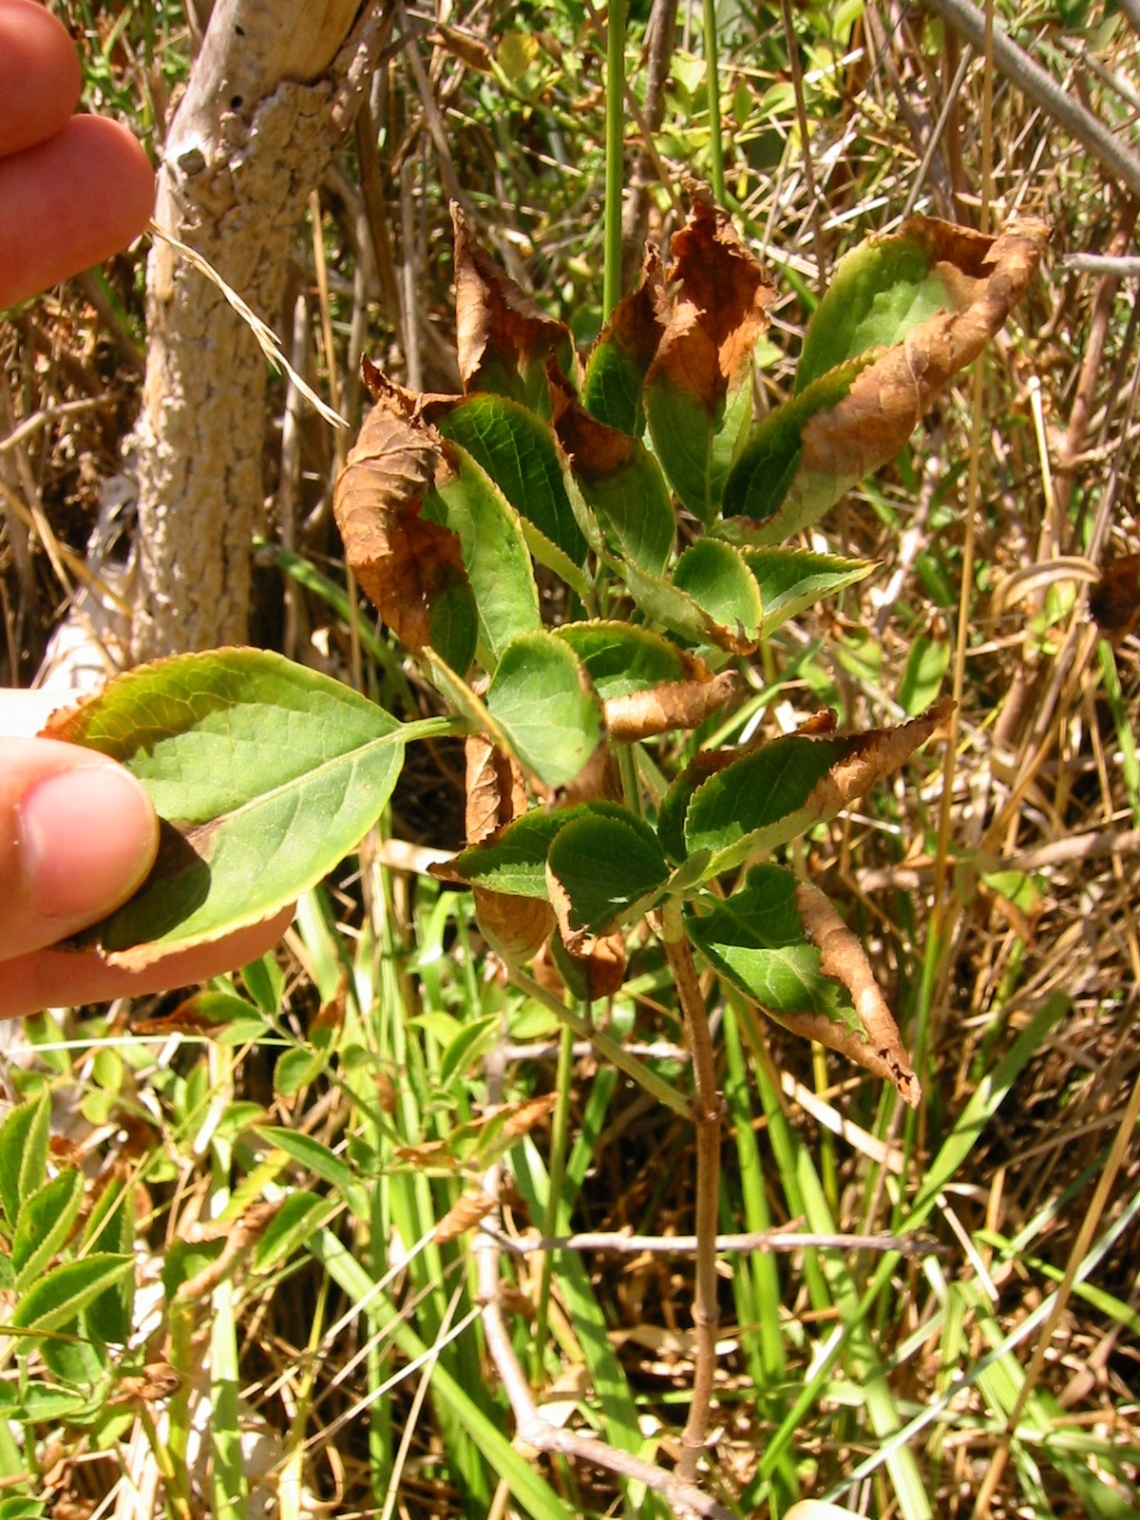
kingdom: Plantae
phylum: Tracheophyta
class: Magnoliopsida
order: Dipsacales
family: Viburnaceae
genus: Sambucus
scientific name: Sambucus nigra
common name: Elder
